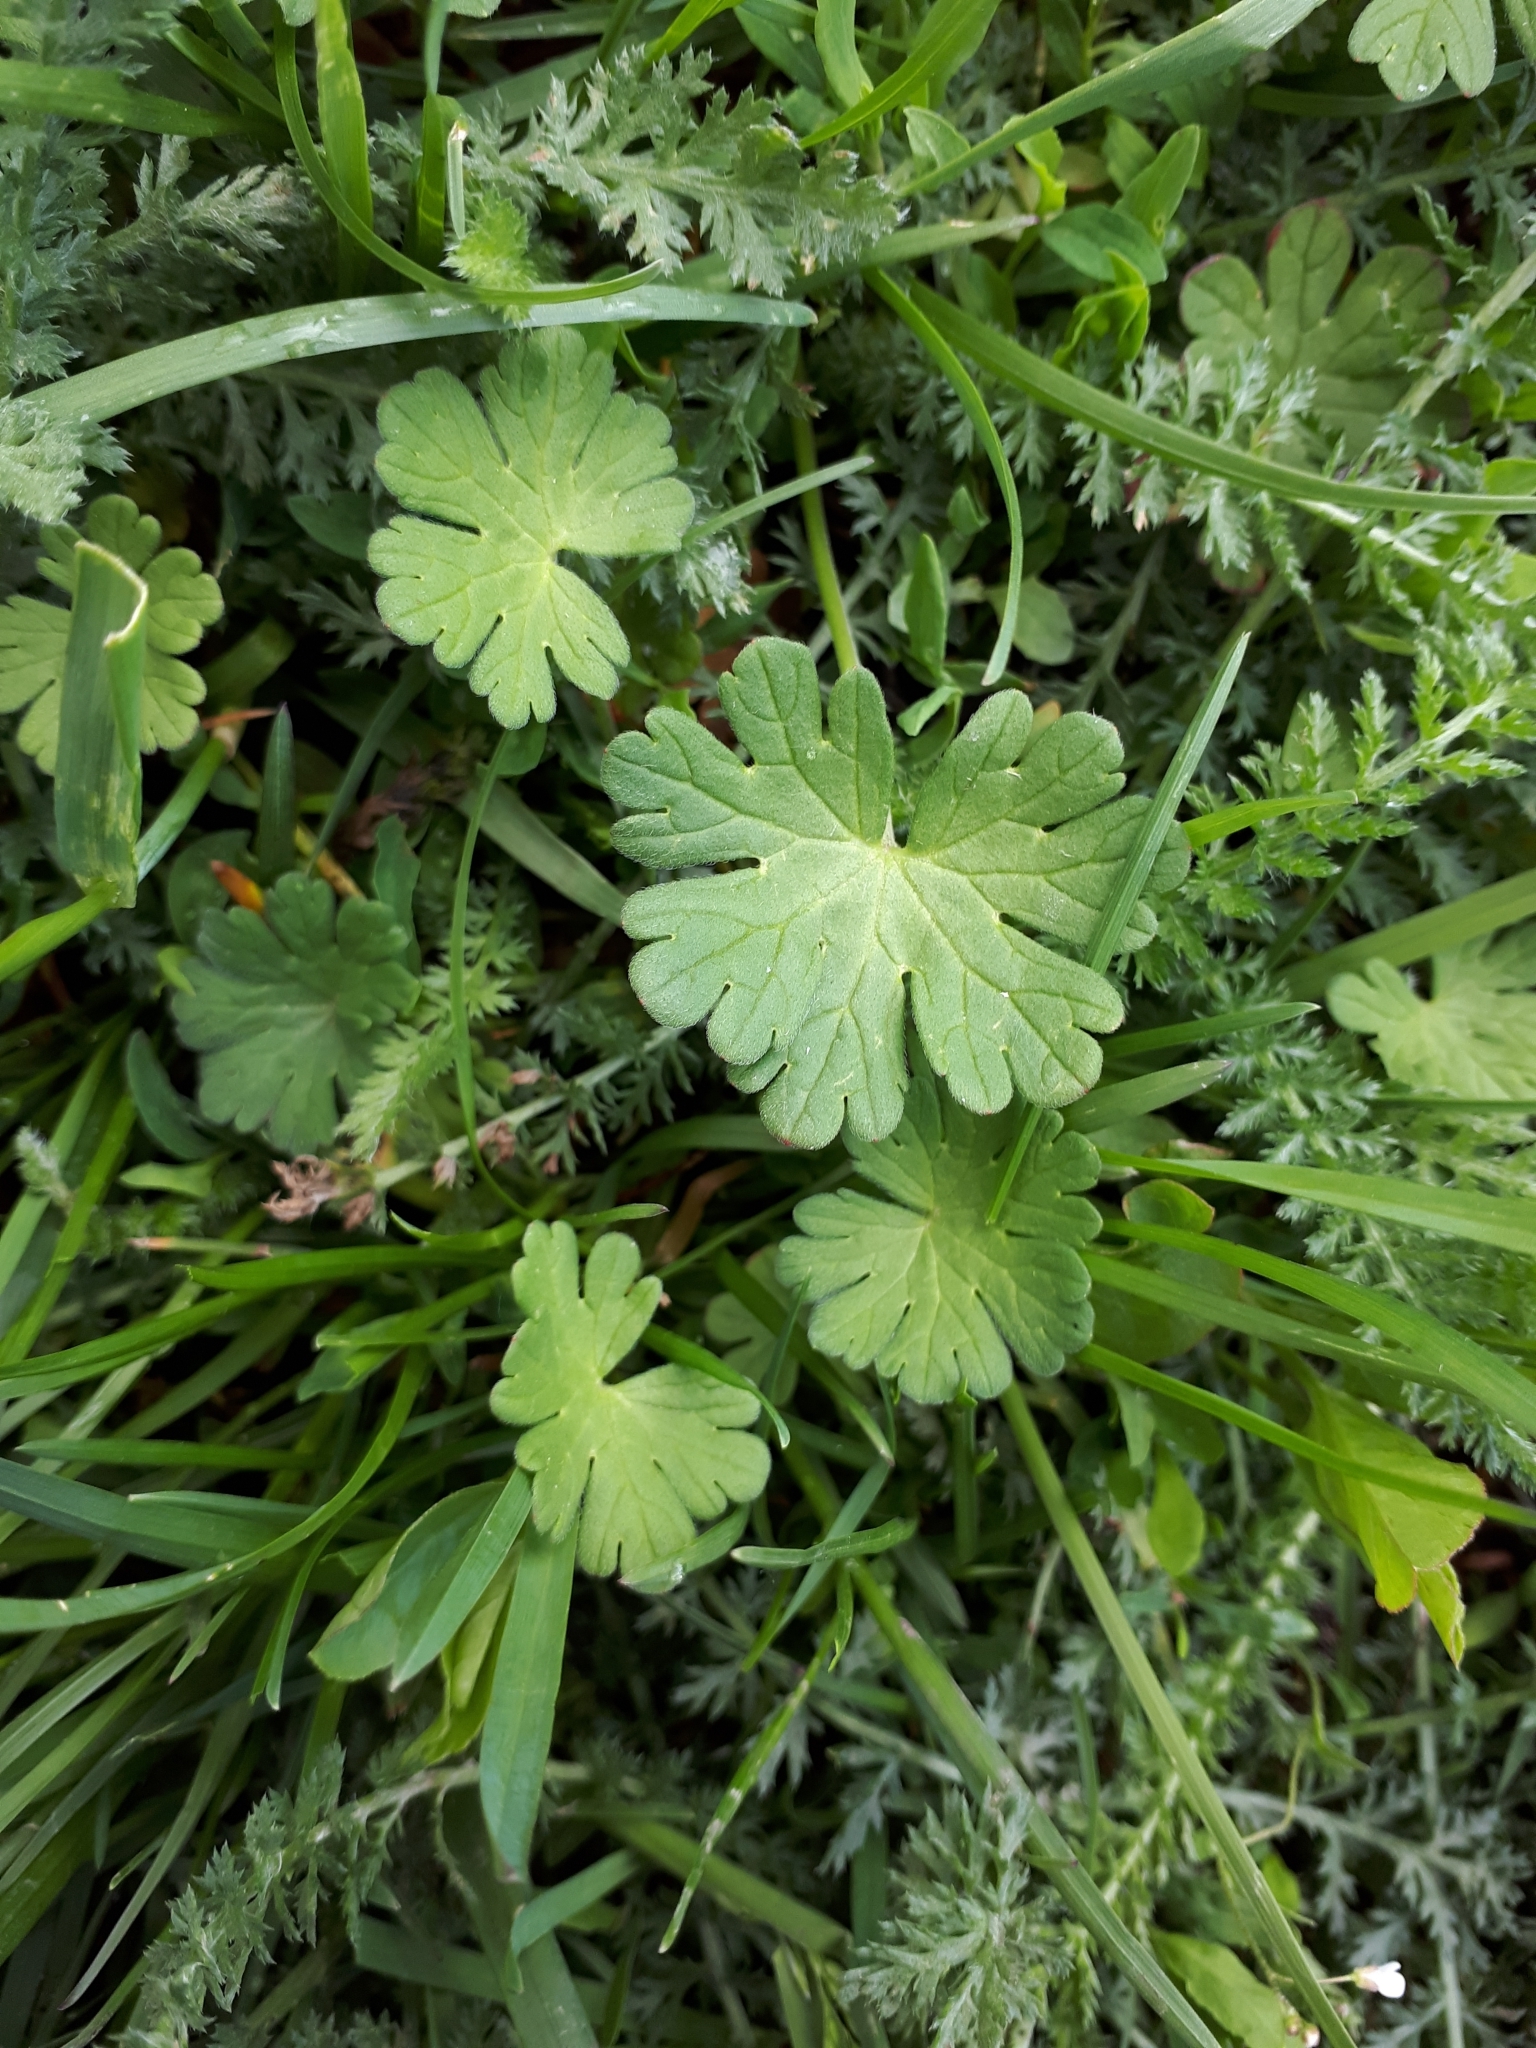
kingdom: Plantae
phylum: Tracheophyta
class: Magnoliopsida
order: Geraniales
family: Geraniaceae
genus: Geranium
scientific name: Geranium pusillum
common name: Small geranium
